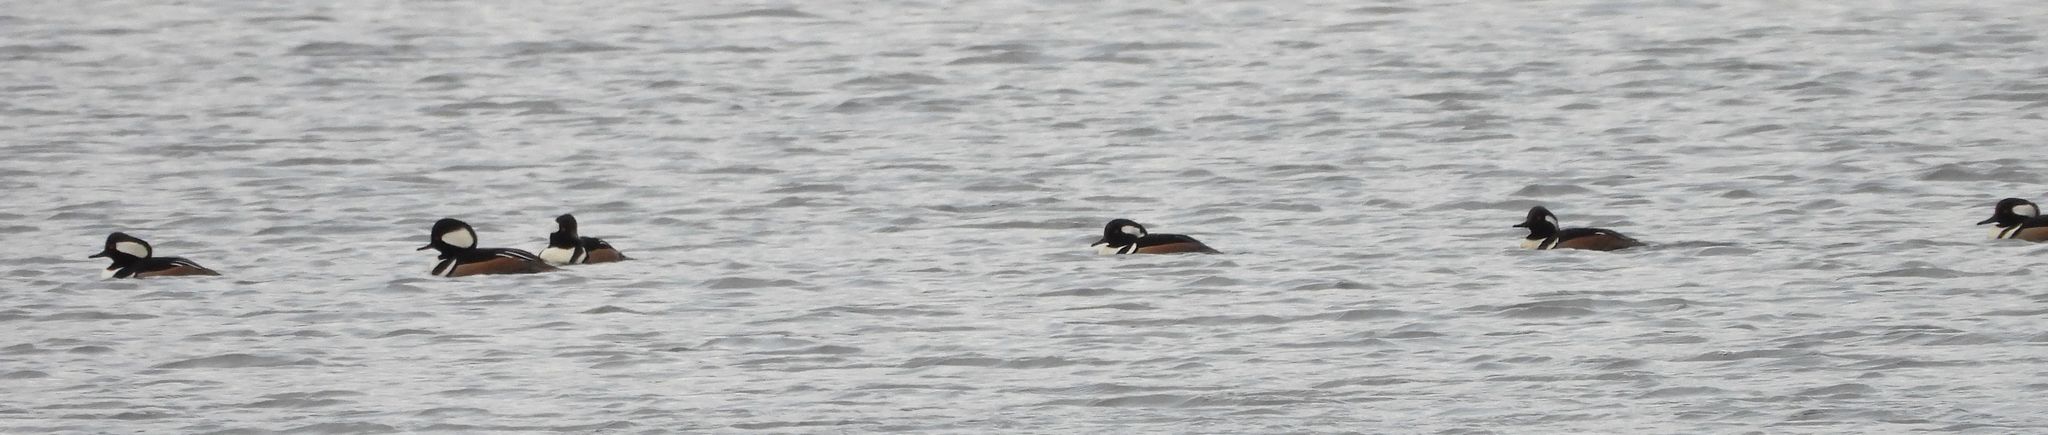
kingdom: Animalia
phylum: Chordata
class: Aves
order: Anseriformes
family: Anatidae
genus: Lophodytes
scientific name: Lophodytes cucullatus
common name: Hooded merganser
